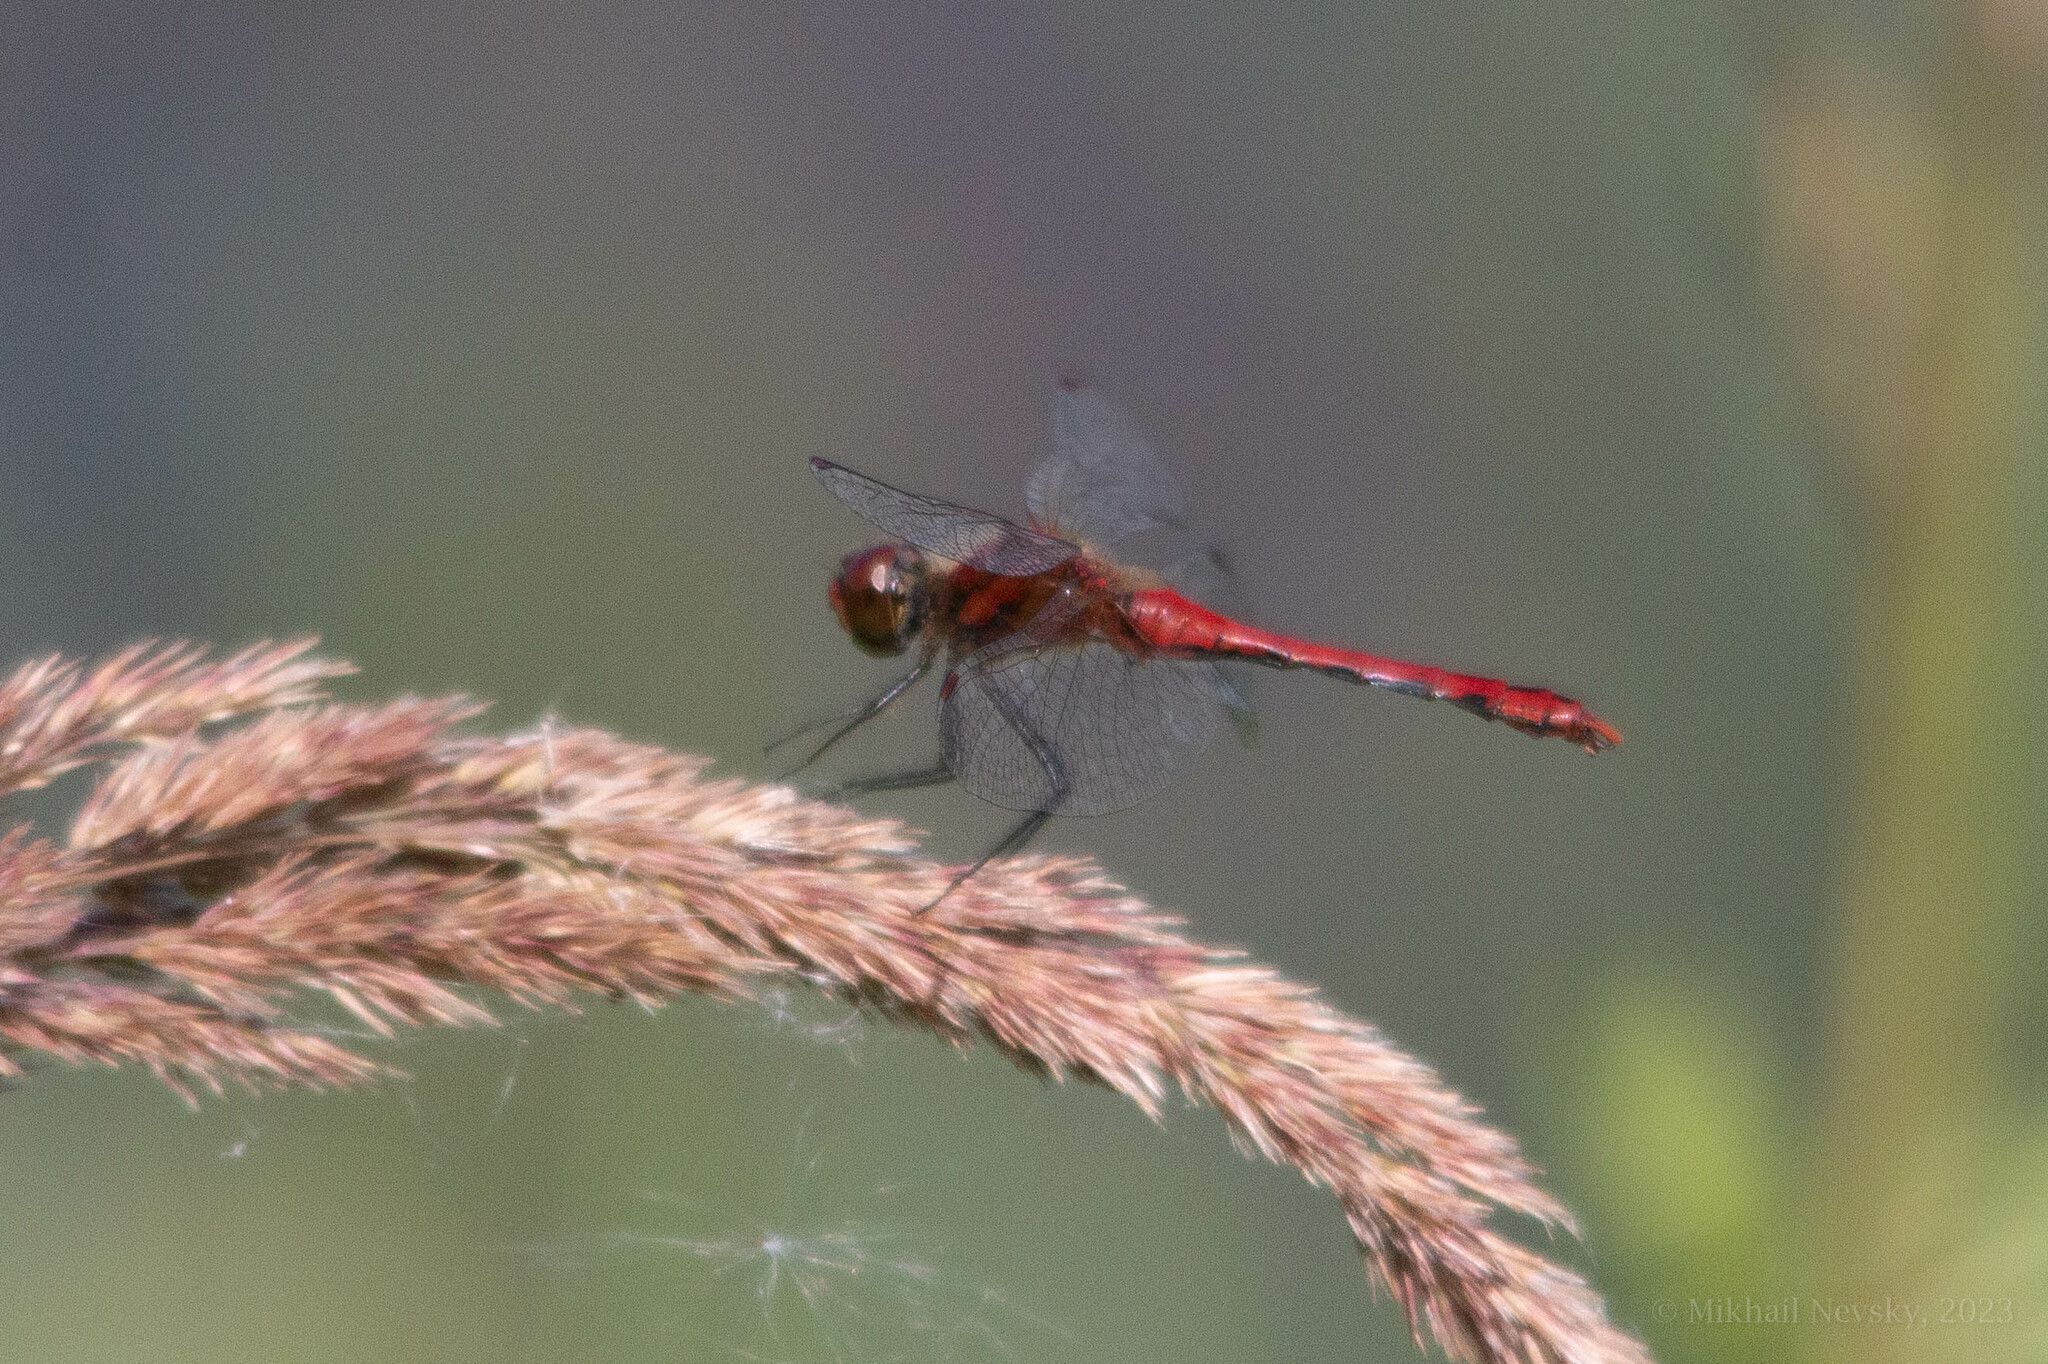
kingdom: Animalia
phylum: Arthropoda
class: Insecta
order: Odonata
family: Libellulidae
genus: Sympetrum
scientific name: Sympetrum sanguineum
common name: Ruddy darter
